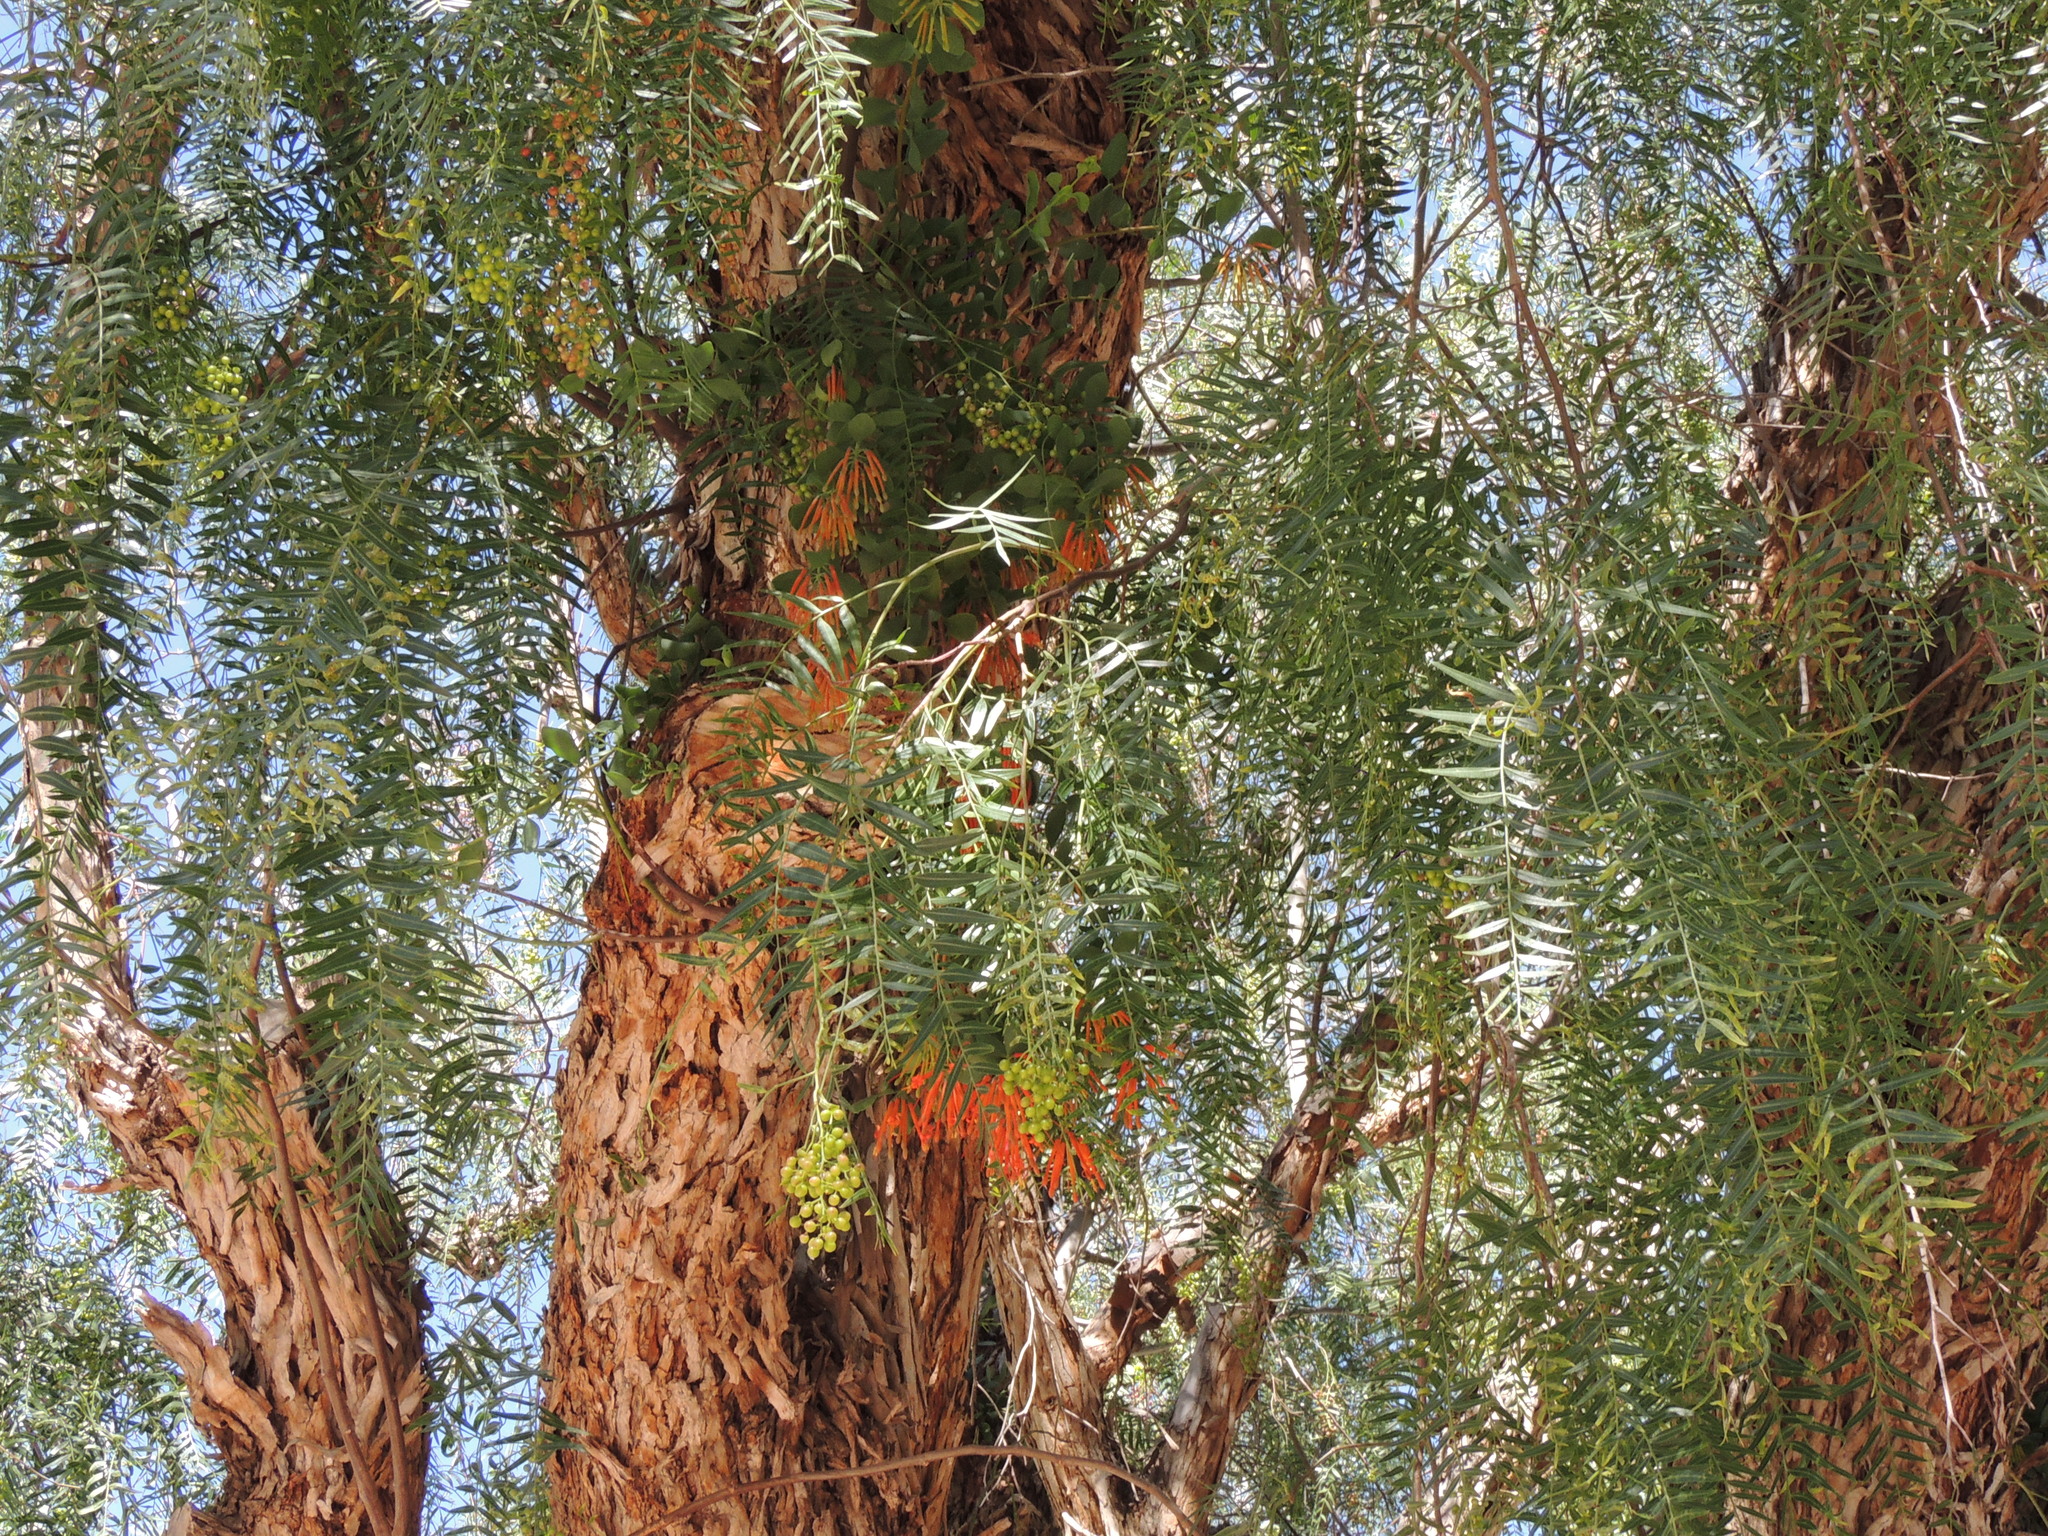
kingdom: Plantae
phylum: Tracheophyta
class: Magnoliopsida
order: Santalales
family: Loranthaceae
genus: Tristerix
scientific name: Tristerix verticillatus
